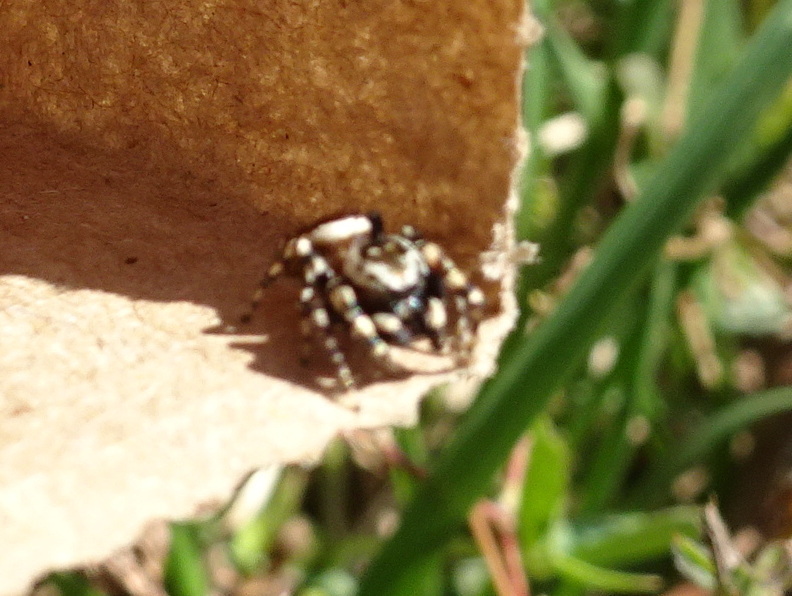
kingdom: Animalia
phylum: Arthropoda
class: Arachnida
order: Araneae
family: Salticidae
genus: Pelegrina
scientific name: Pelegrina galathea
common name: Jumping spiders
